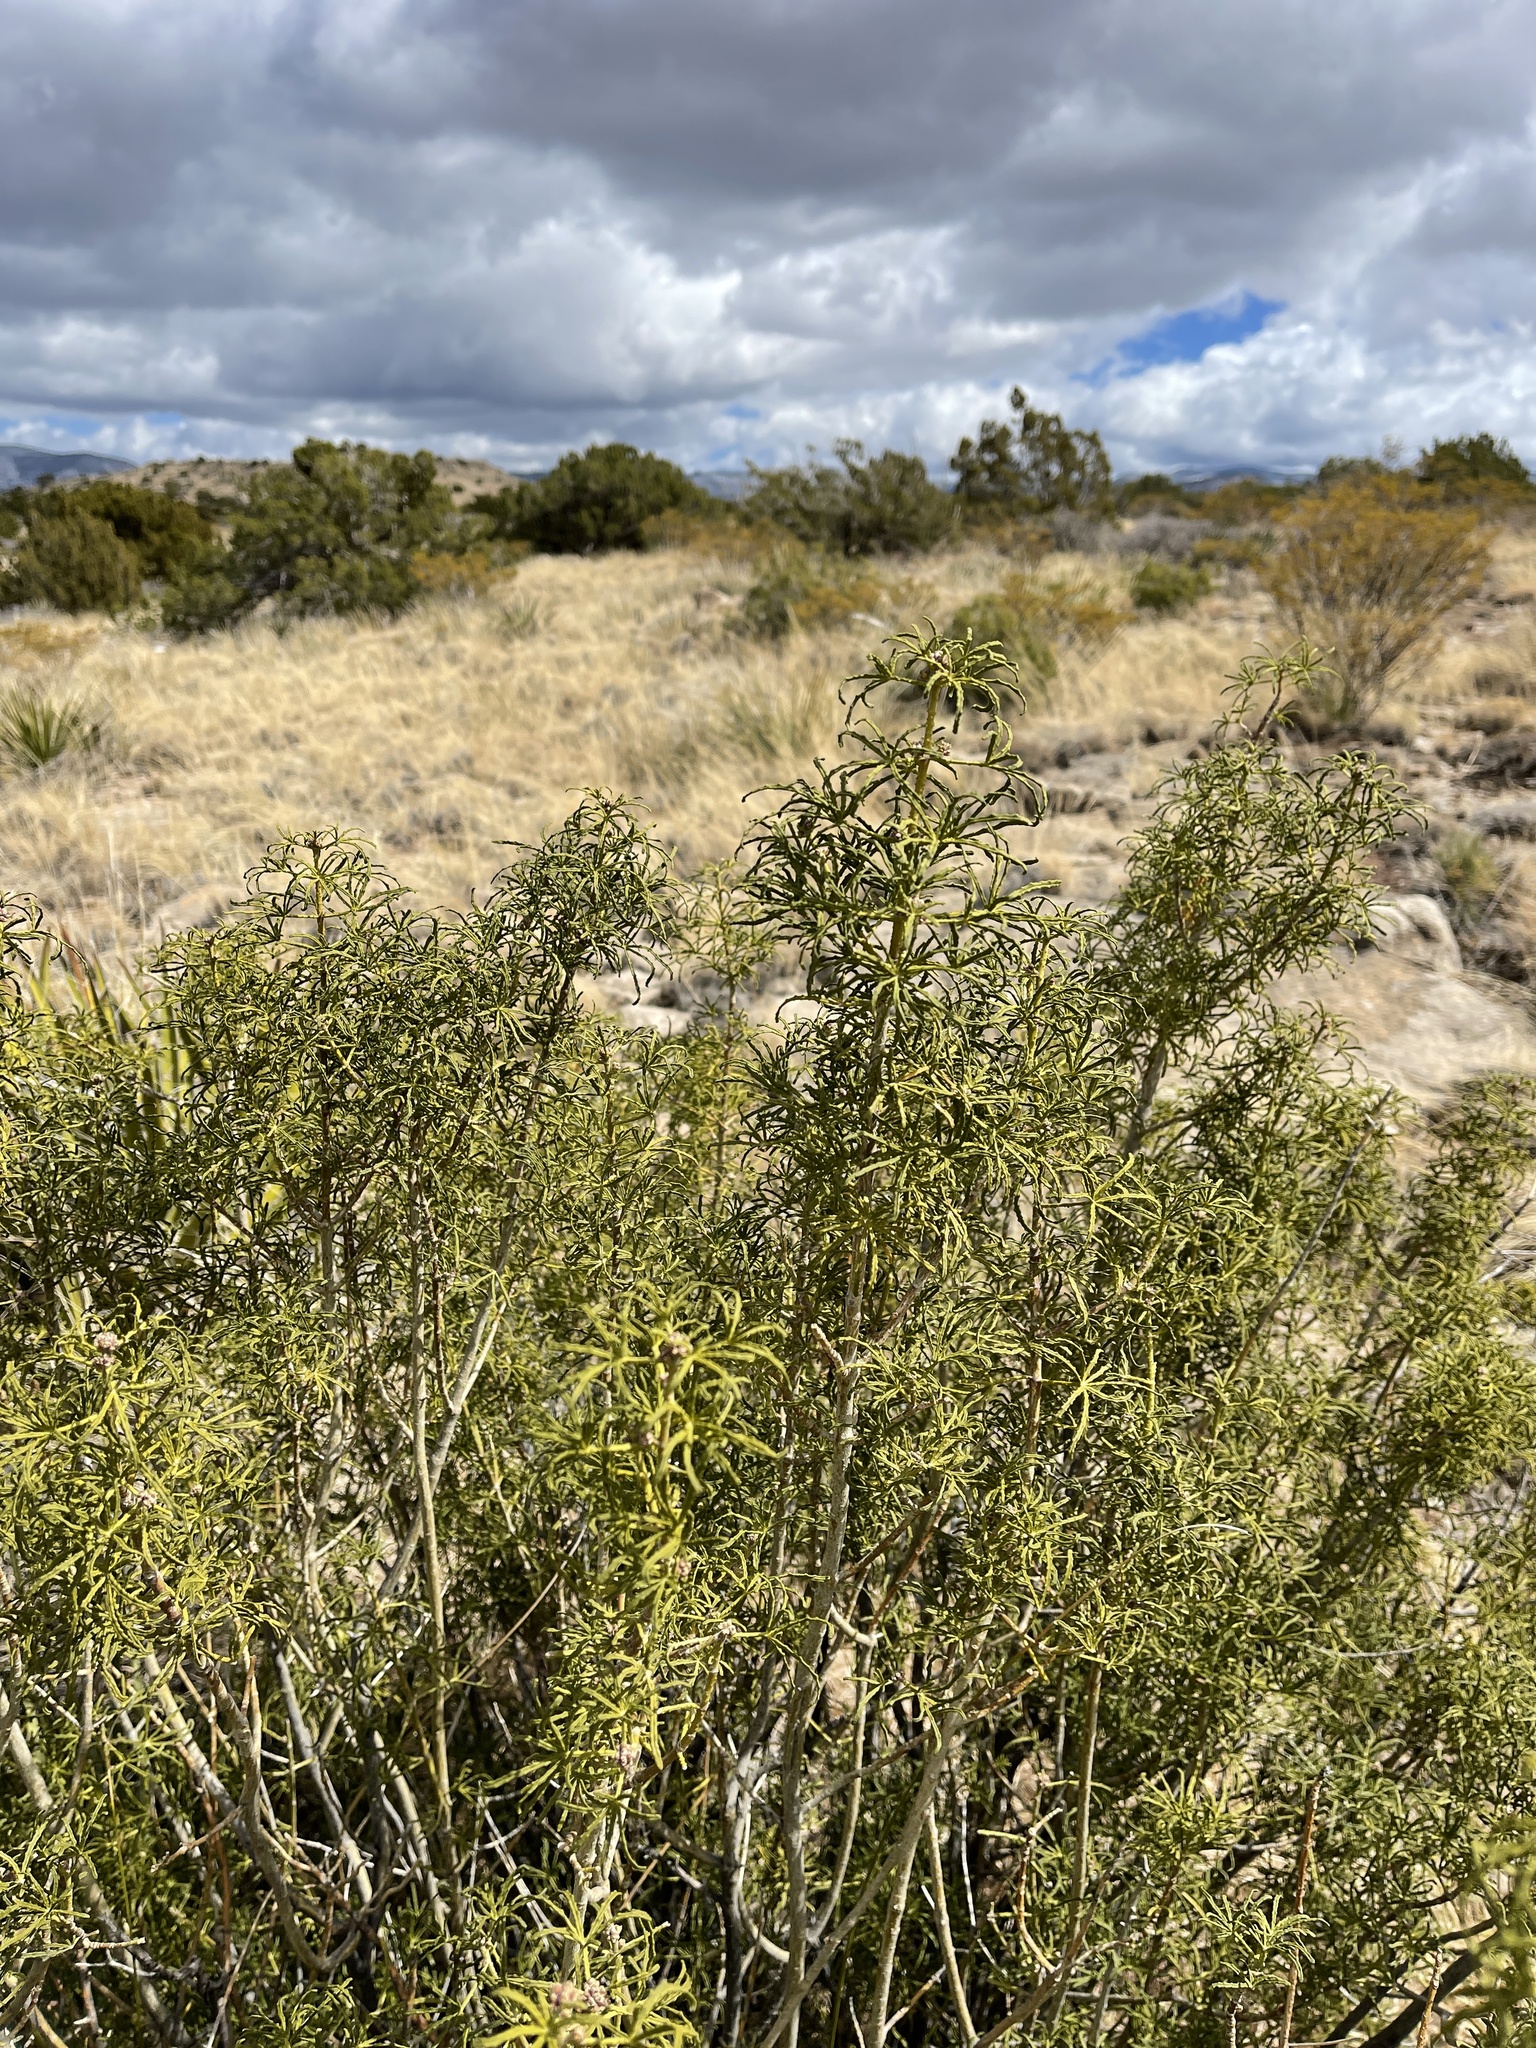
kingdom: Plantae
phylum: Tracheophyta
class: Magnoliopsida
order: Sapindales
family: Rutaceae
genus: Choisya
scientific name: Choisya dumosa
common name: Mexican-orange
